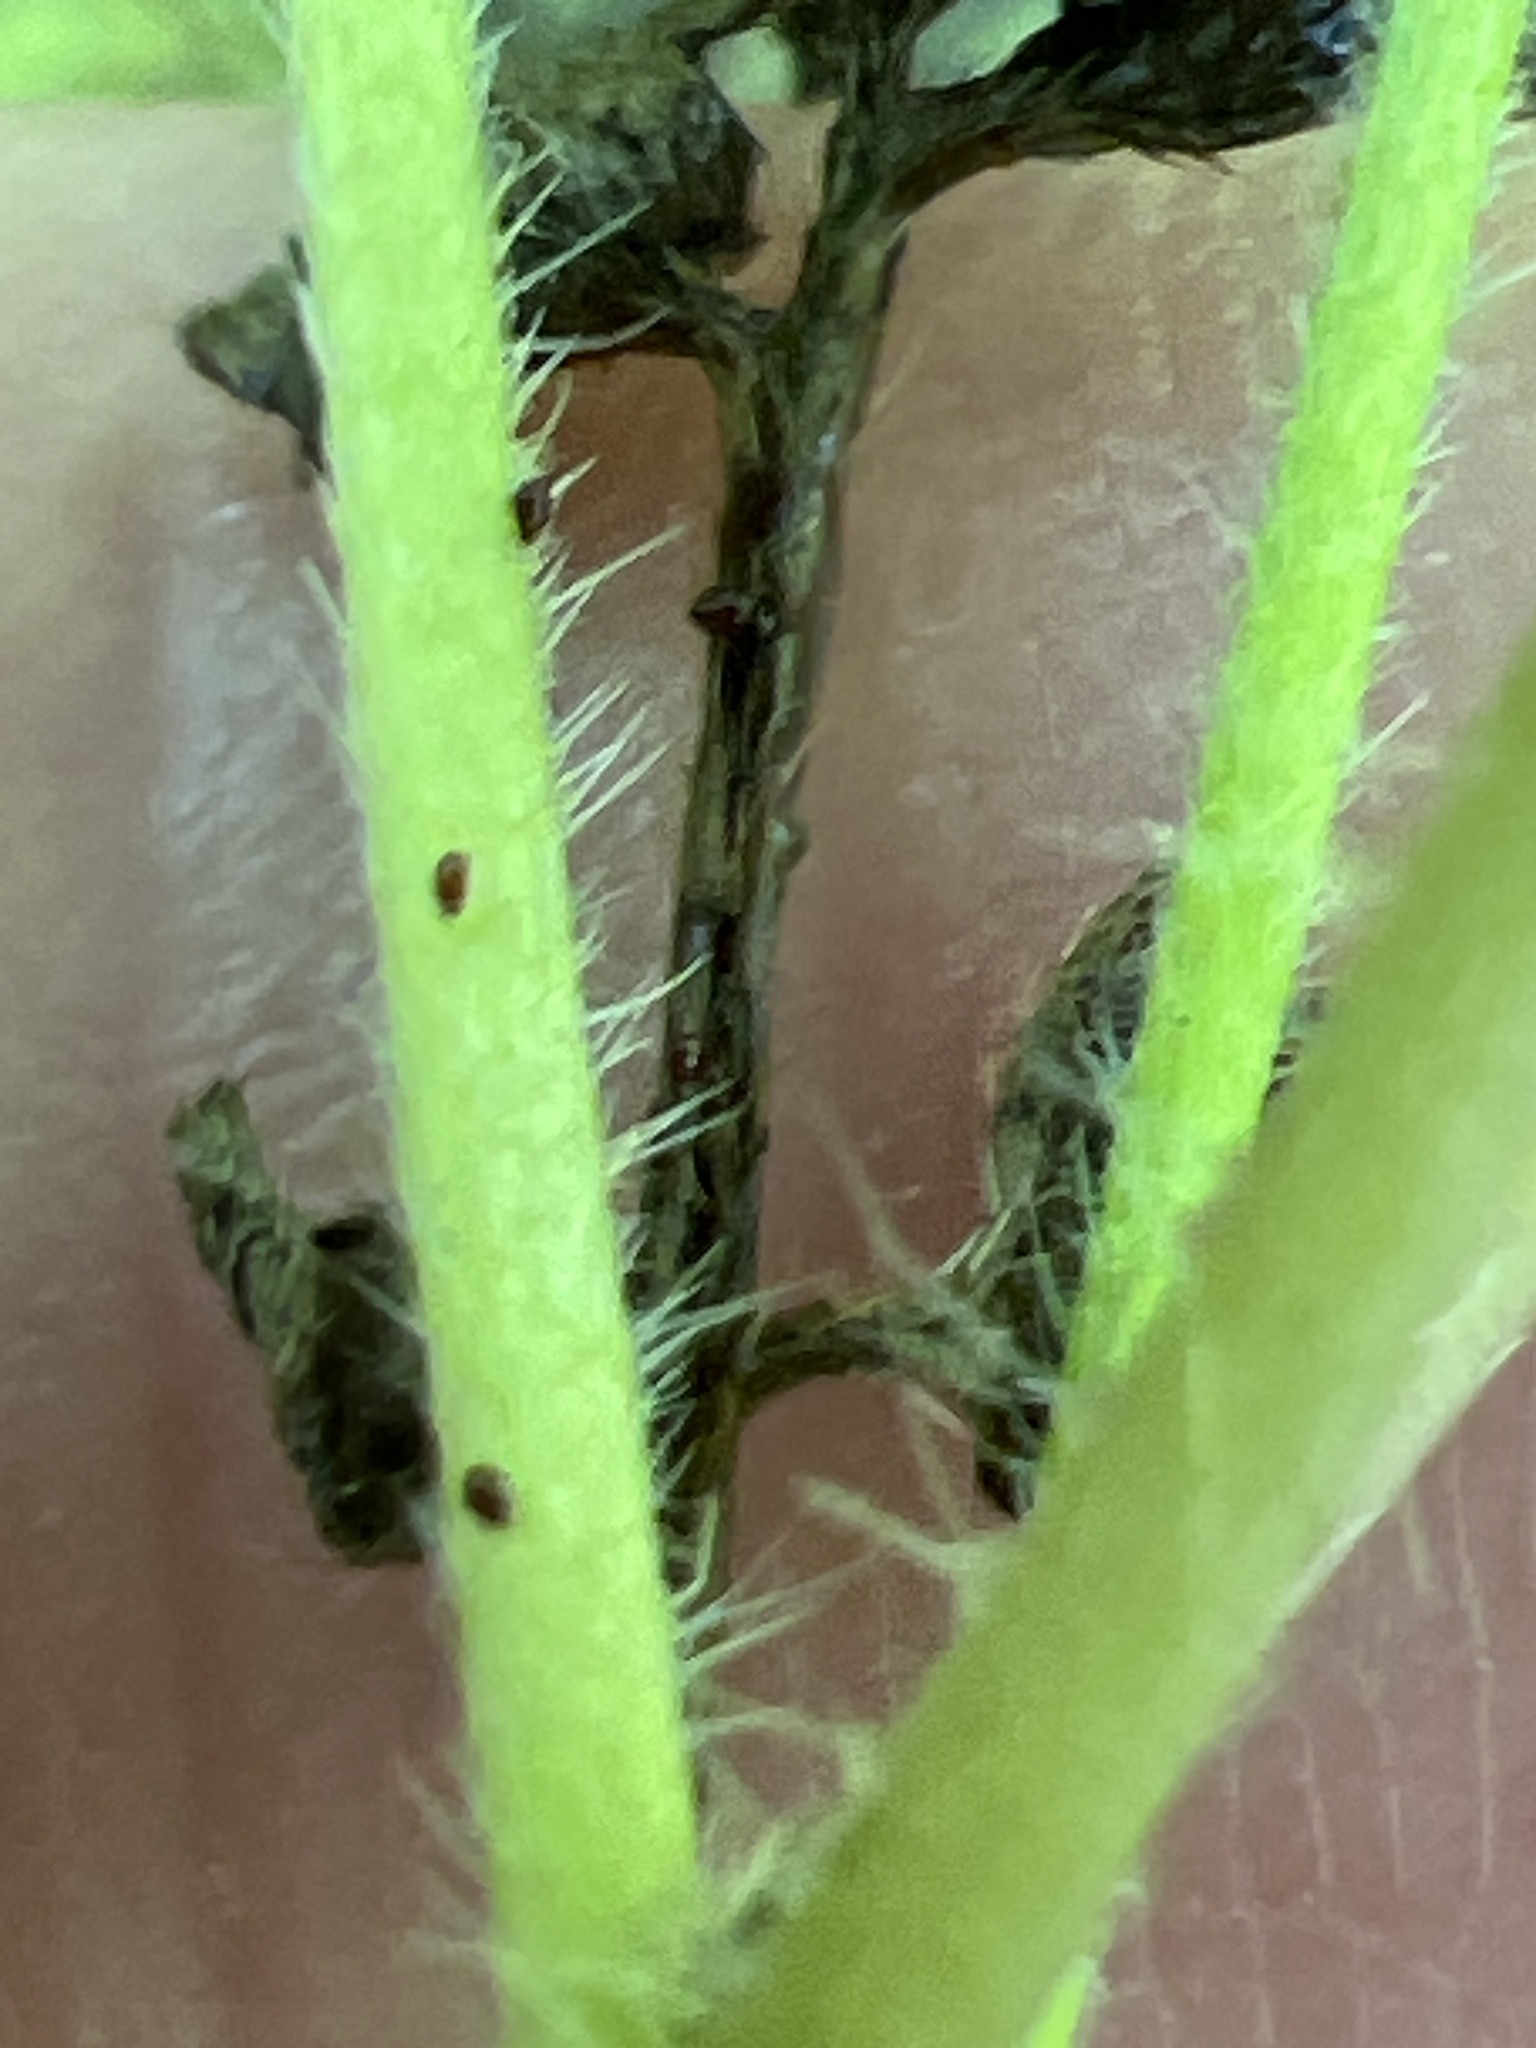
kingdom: Plantae
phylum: Tracheophyta
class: Magnoliopsida
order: Boraginales
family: Hydrophyllaceae
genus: Phacelia
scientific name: Phacelia covillei
